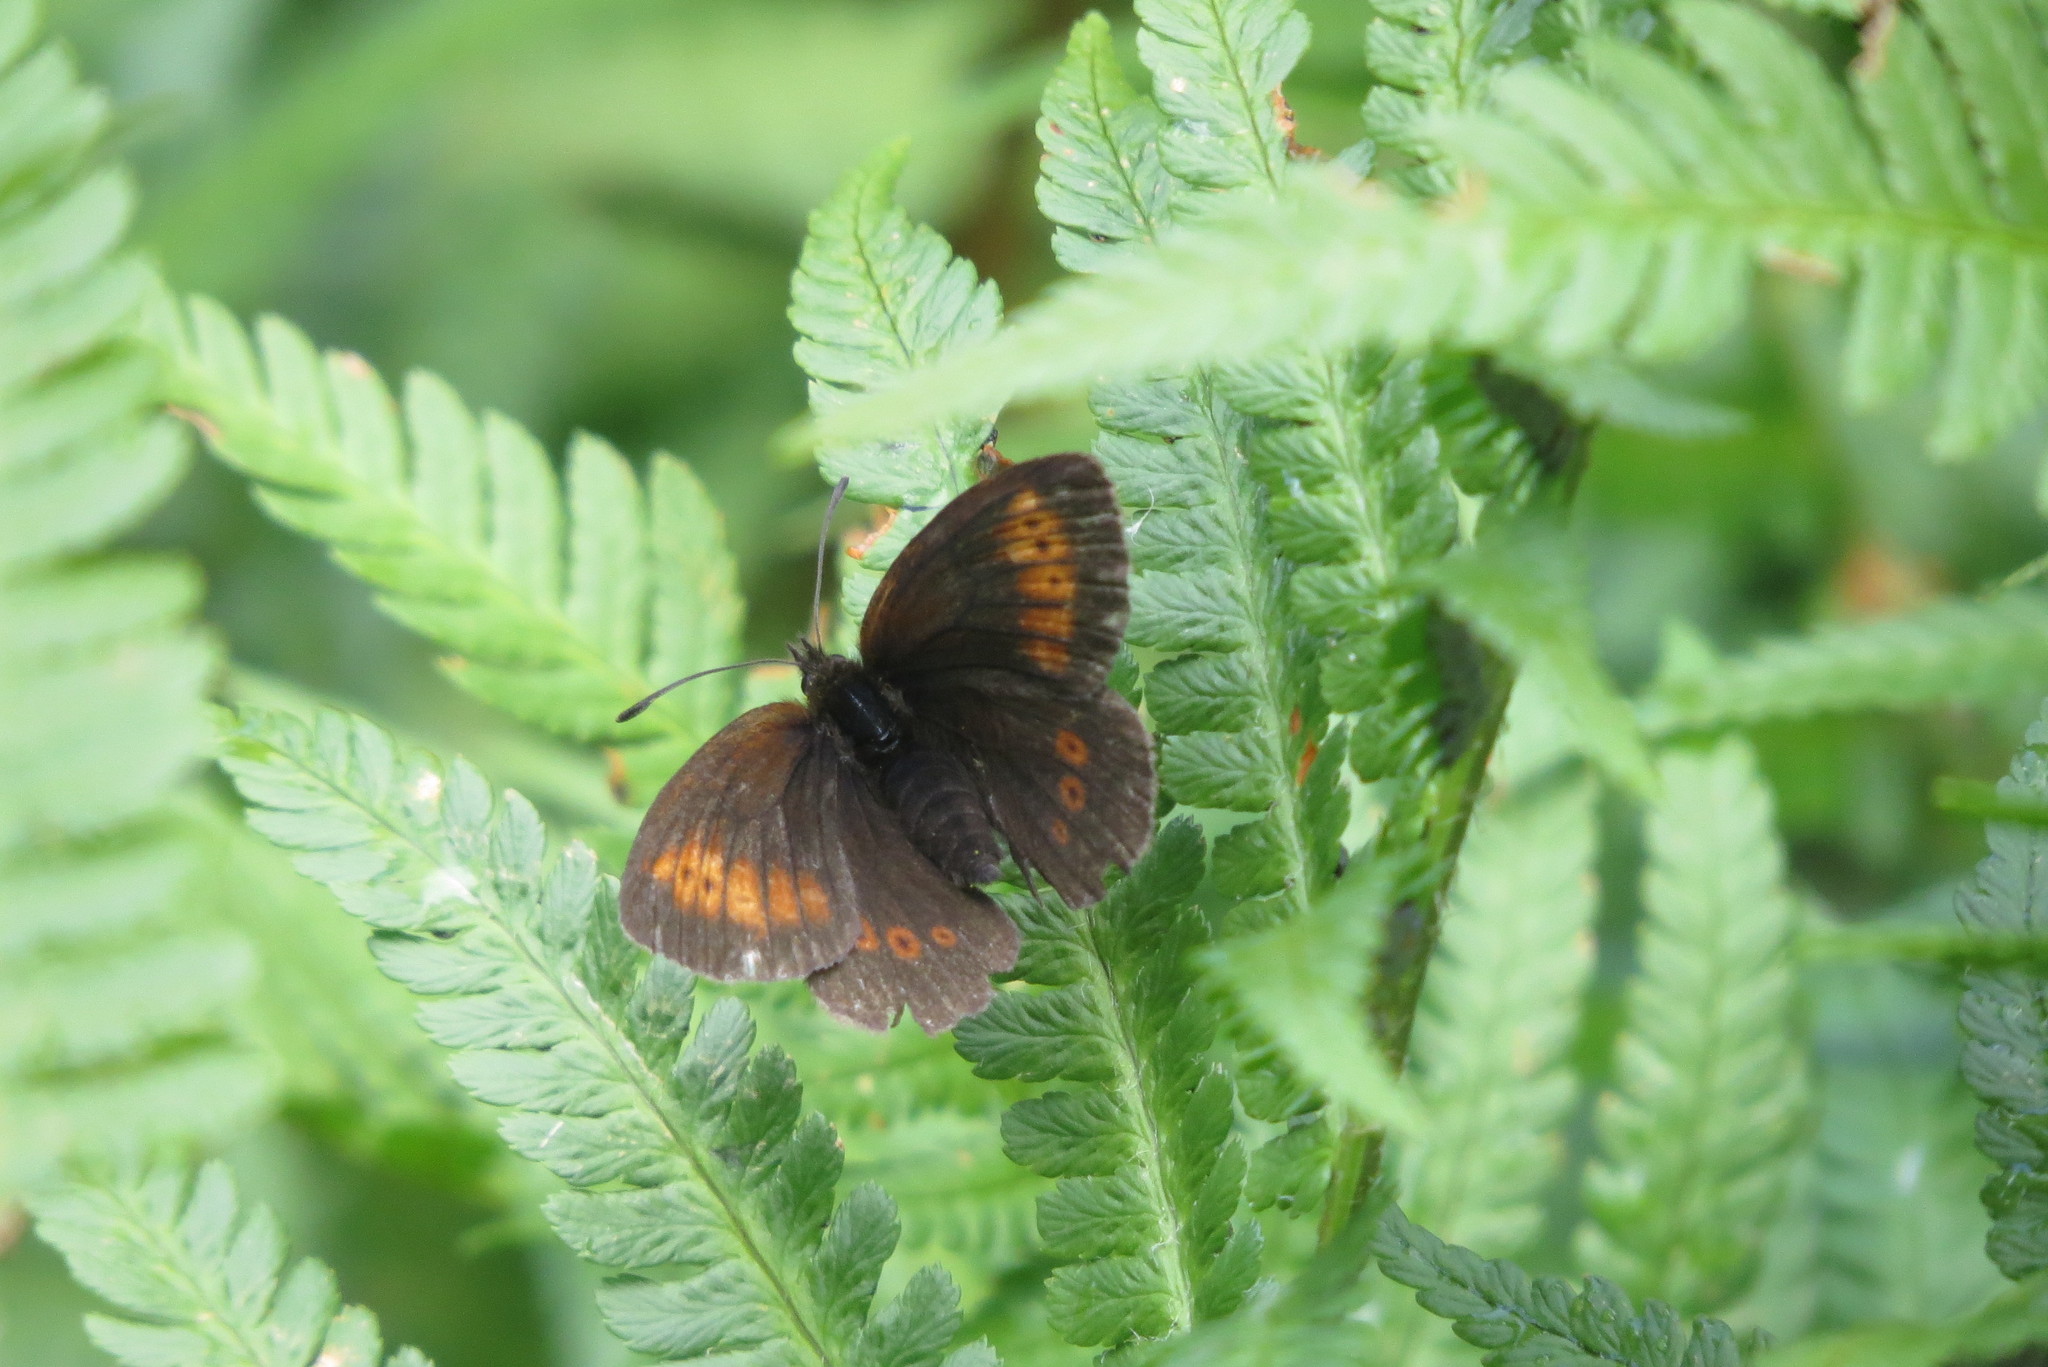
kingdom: Animalia
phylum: Arthropoda
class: Insecta
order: Lepidoptera
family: Nymphalidae
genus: Erebia
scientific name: Erebia melampus
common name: Lesser mountain ringlet
